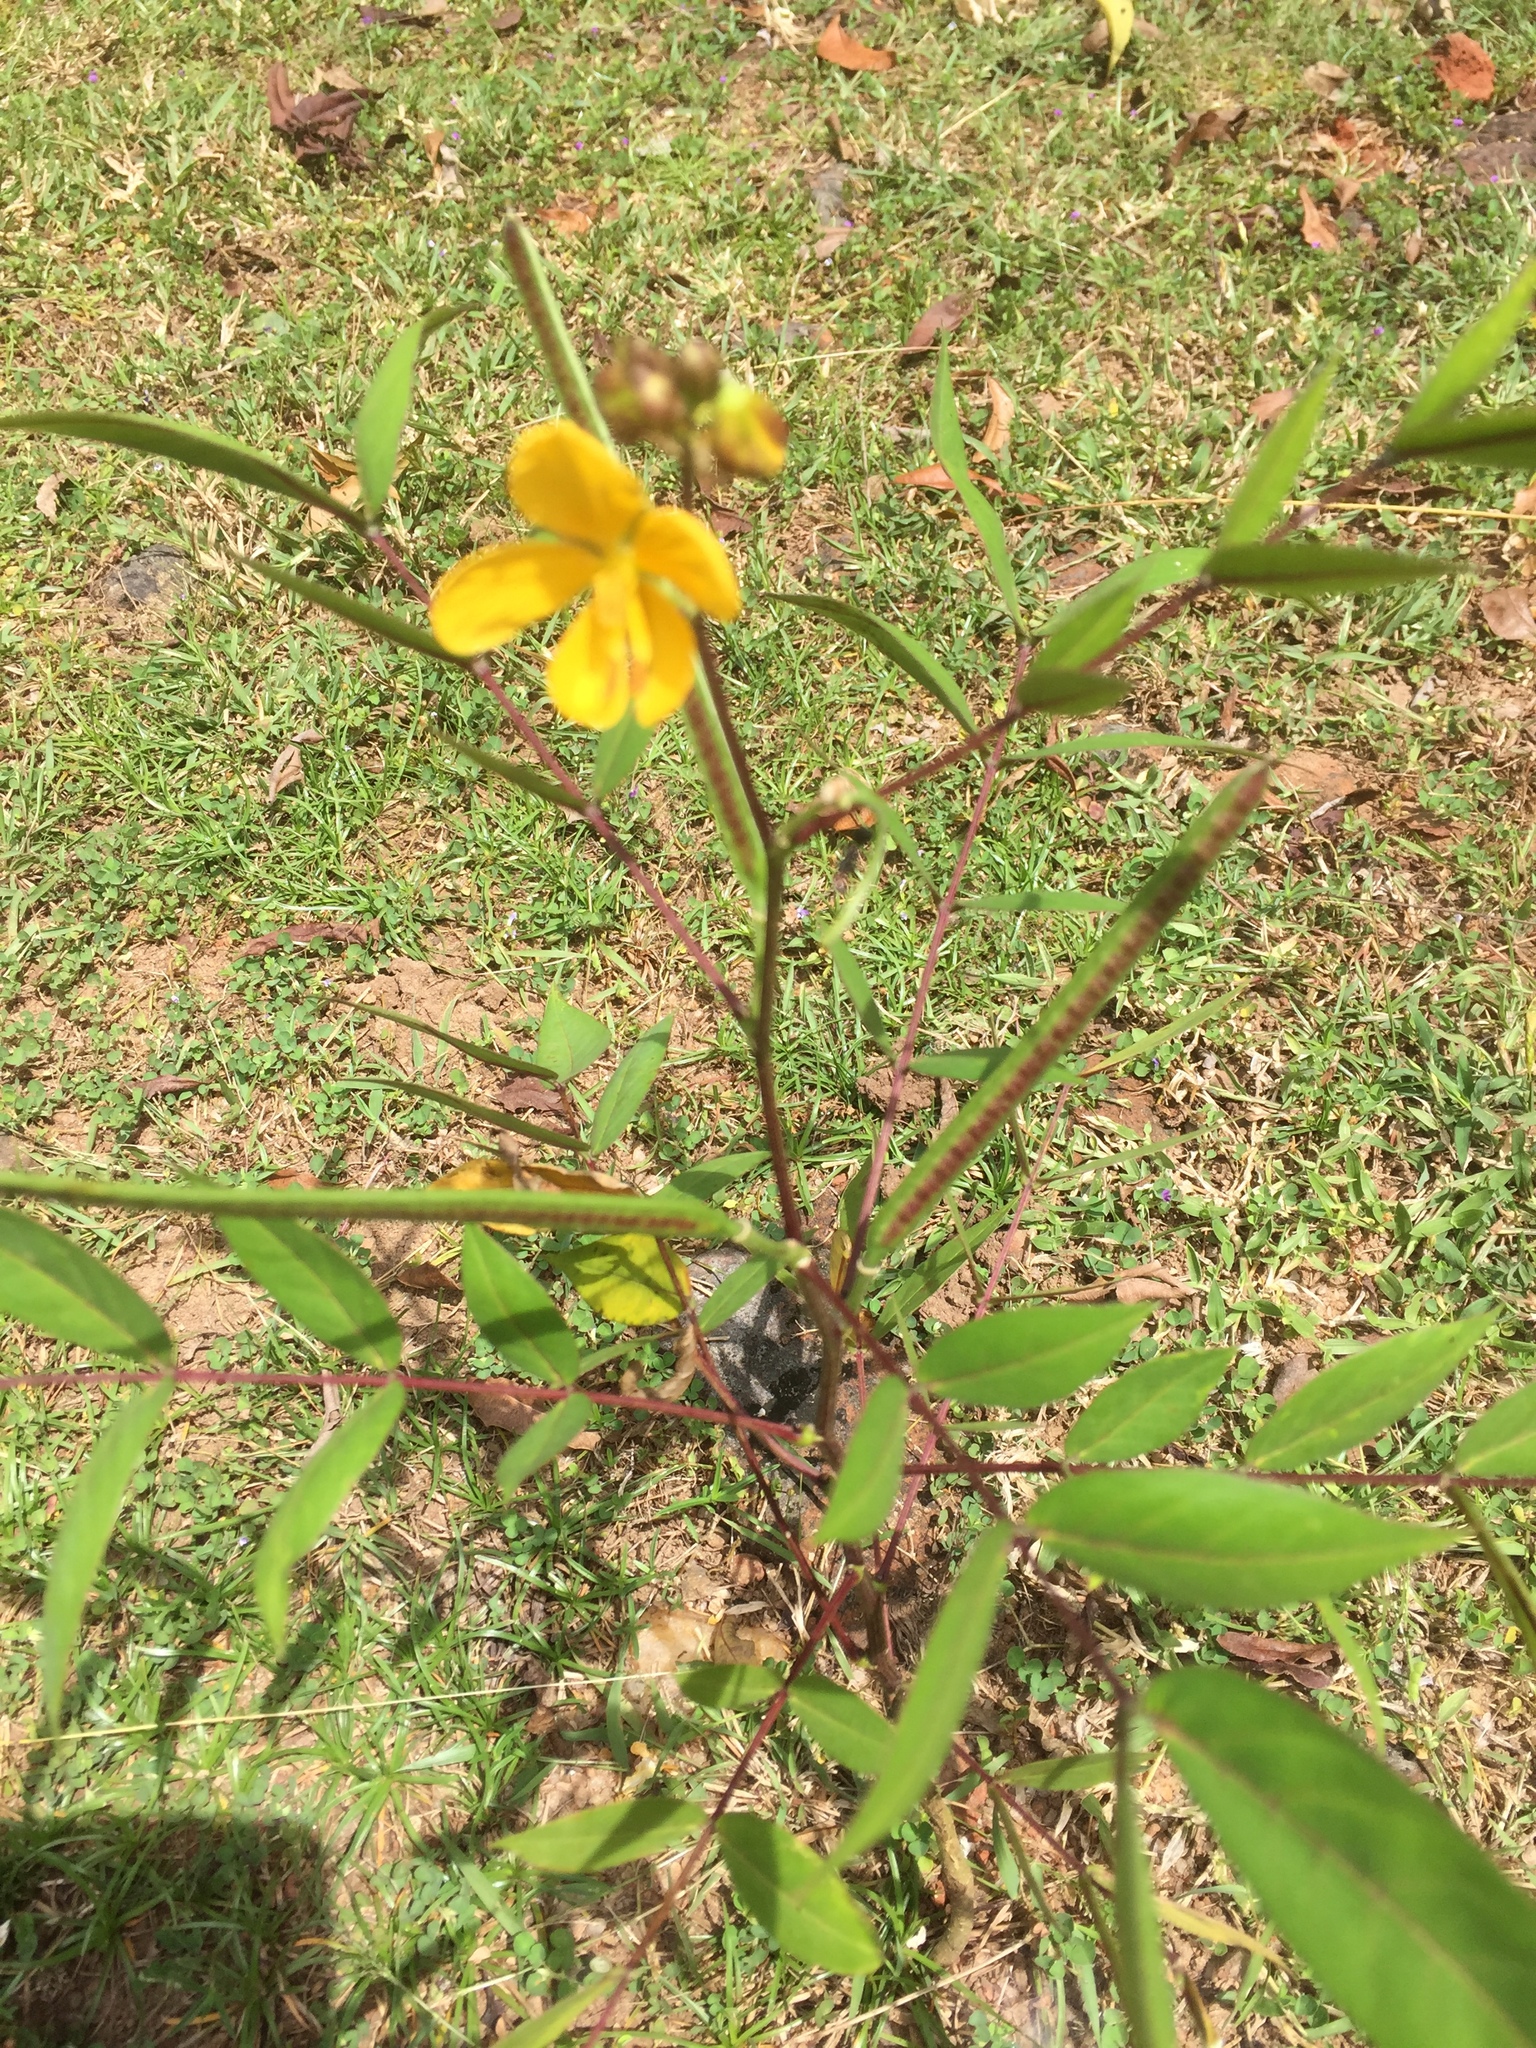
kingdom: Plantae
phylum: Tracheophyta
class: Magnoliopsida
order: Fabales
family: Fabaceae
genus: Senna
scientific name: Senna occidentalis
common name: Septicweed
